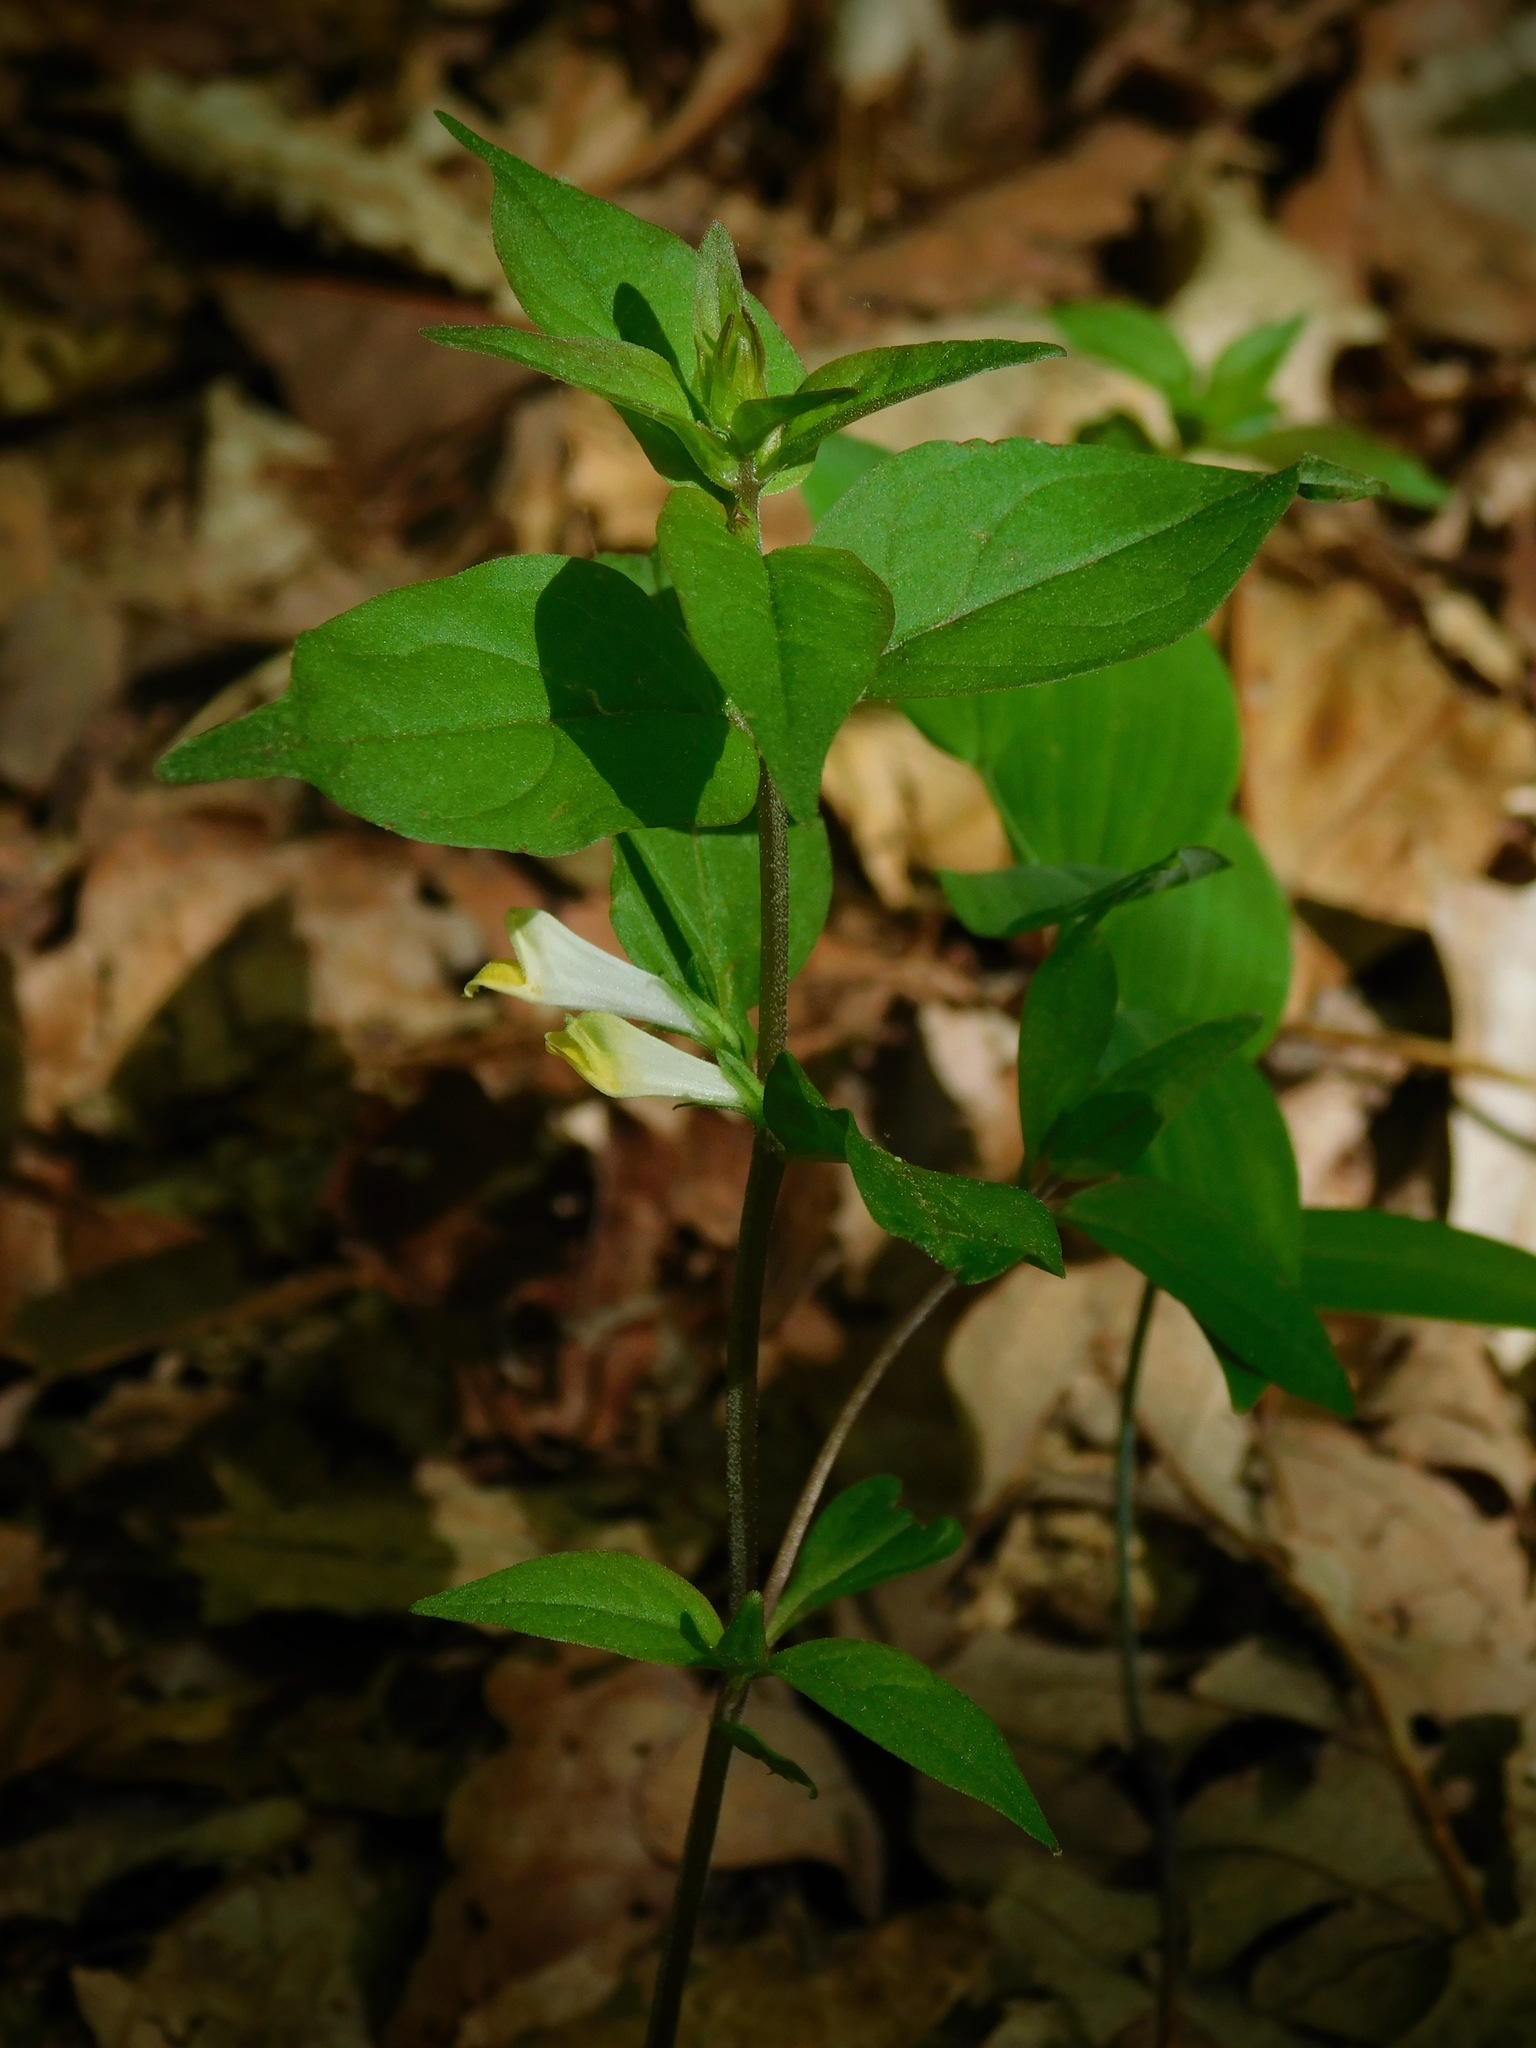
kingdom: Plantae
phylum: Tracheophyta
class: Magnoliopsida
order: Lamiales
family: Orobanchaceae
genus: Melampyrum
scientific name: Melampyrum lineare
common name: American cow-wheat
